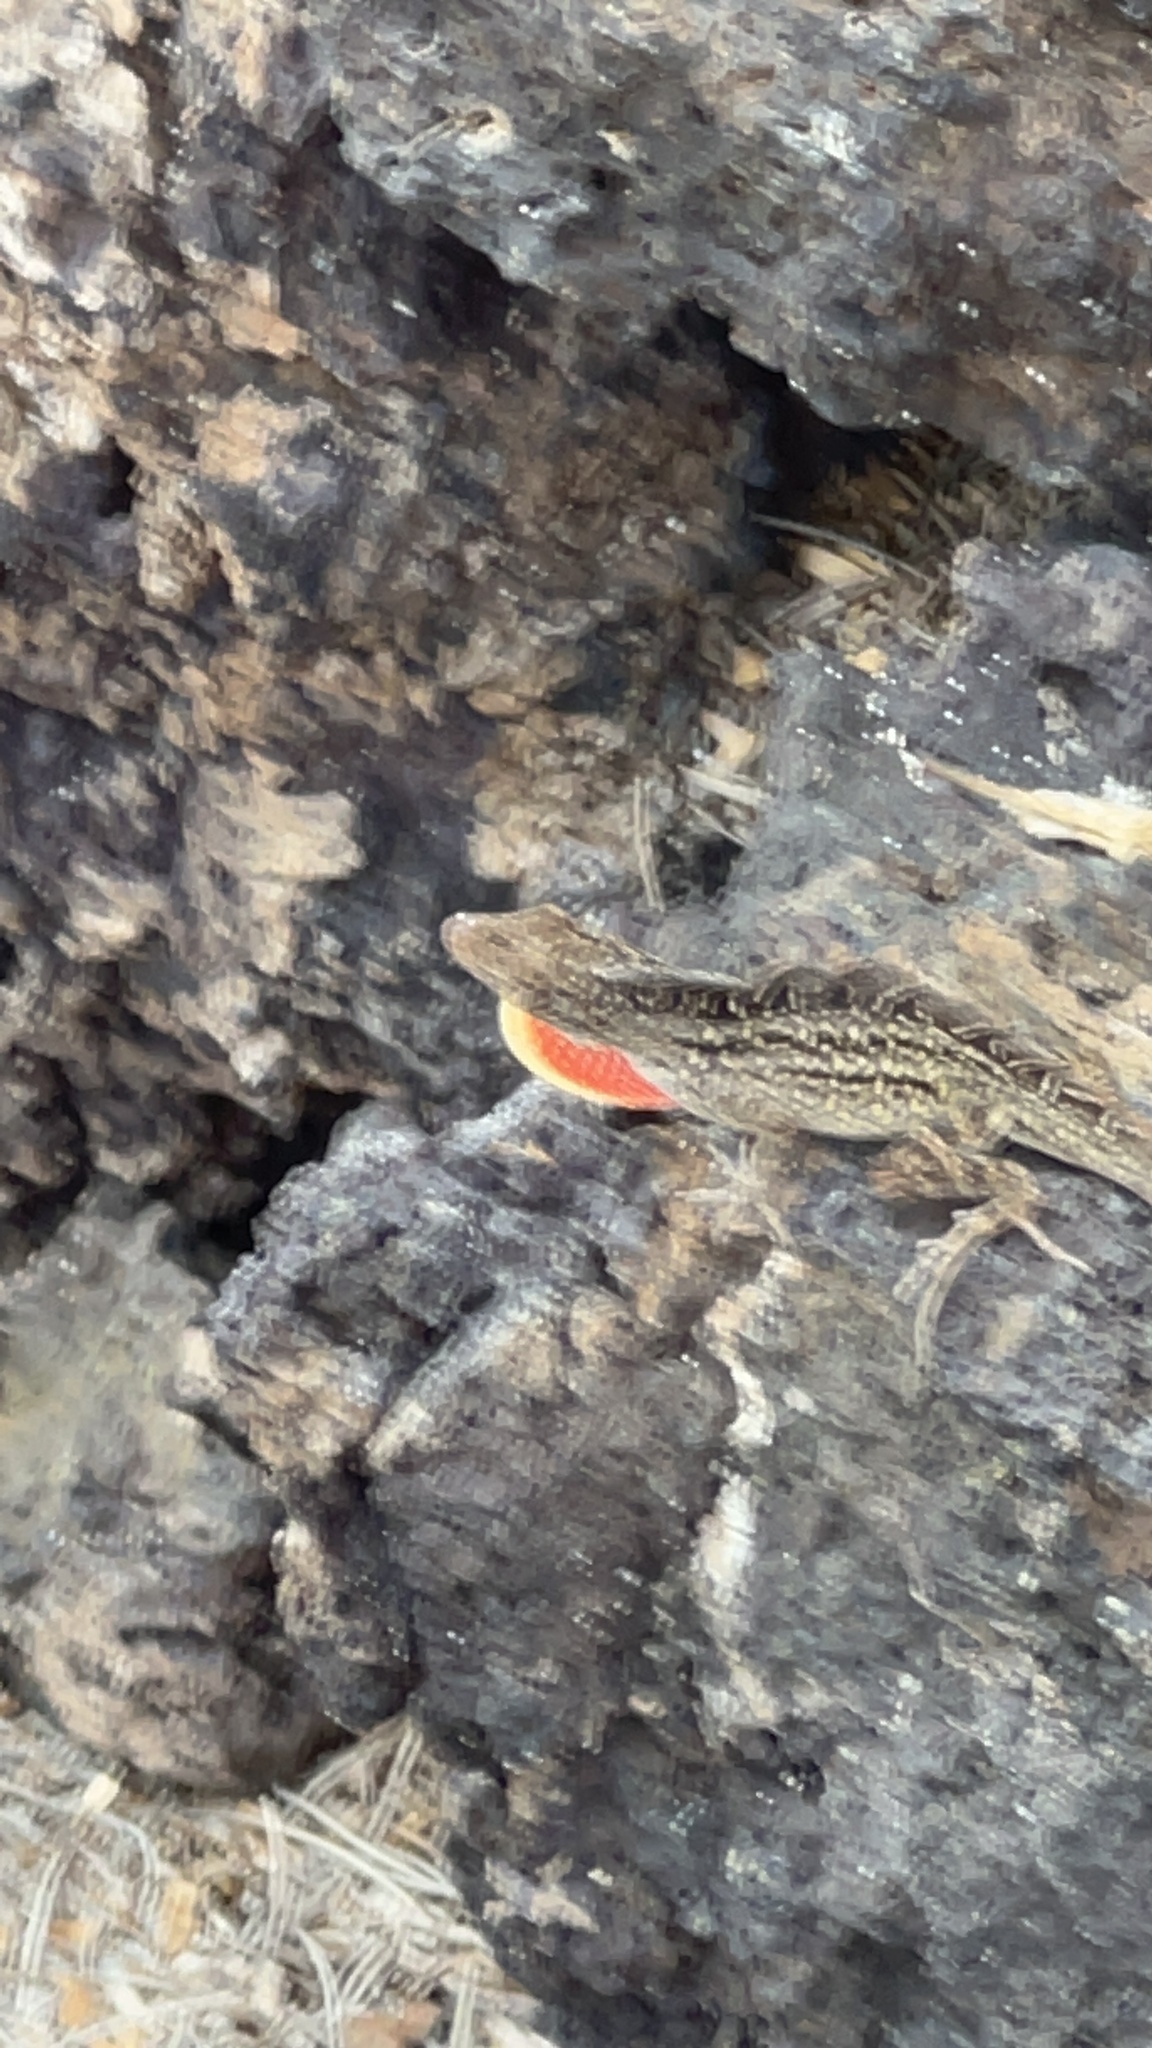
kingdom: Animalia
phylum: Chordata
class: Squamata
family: Dactyloidae
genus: Anolis
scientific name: Anolis sagrei
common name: Brown anole
